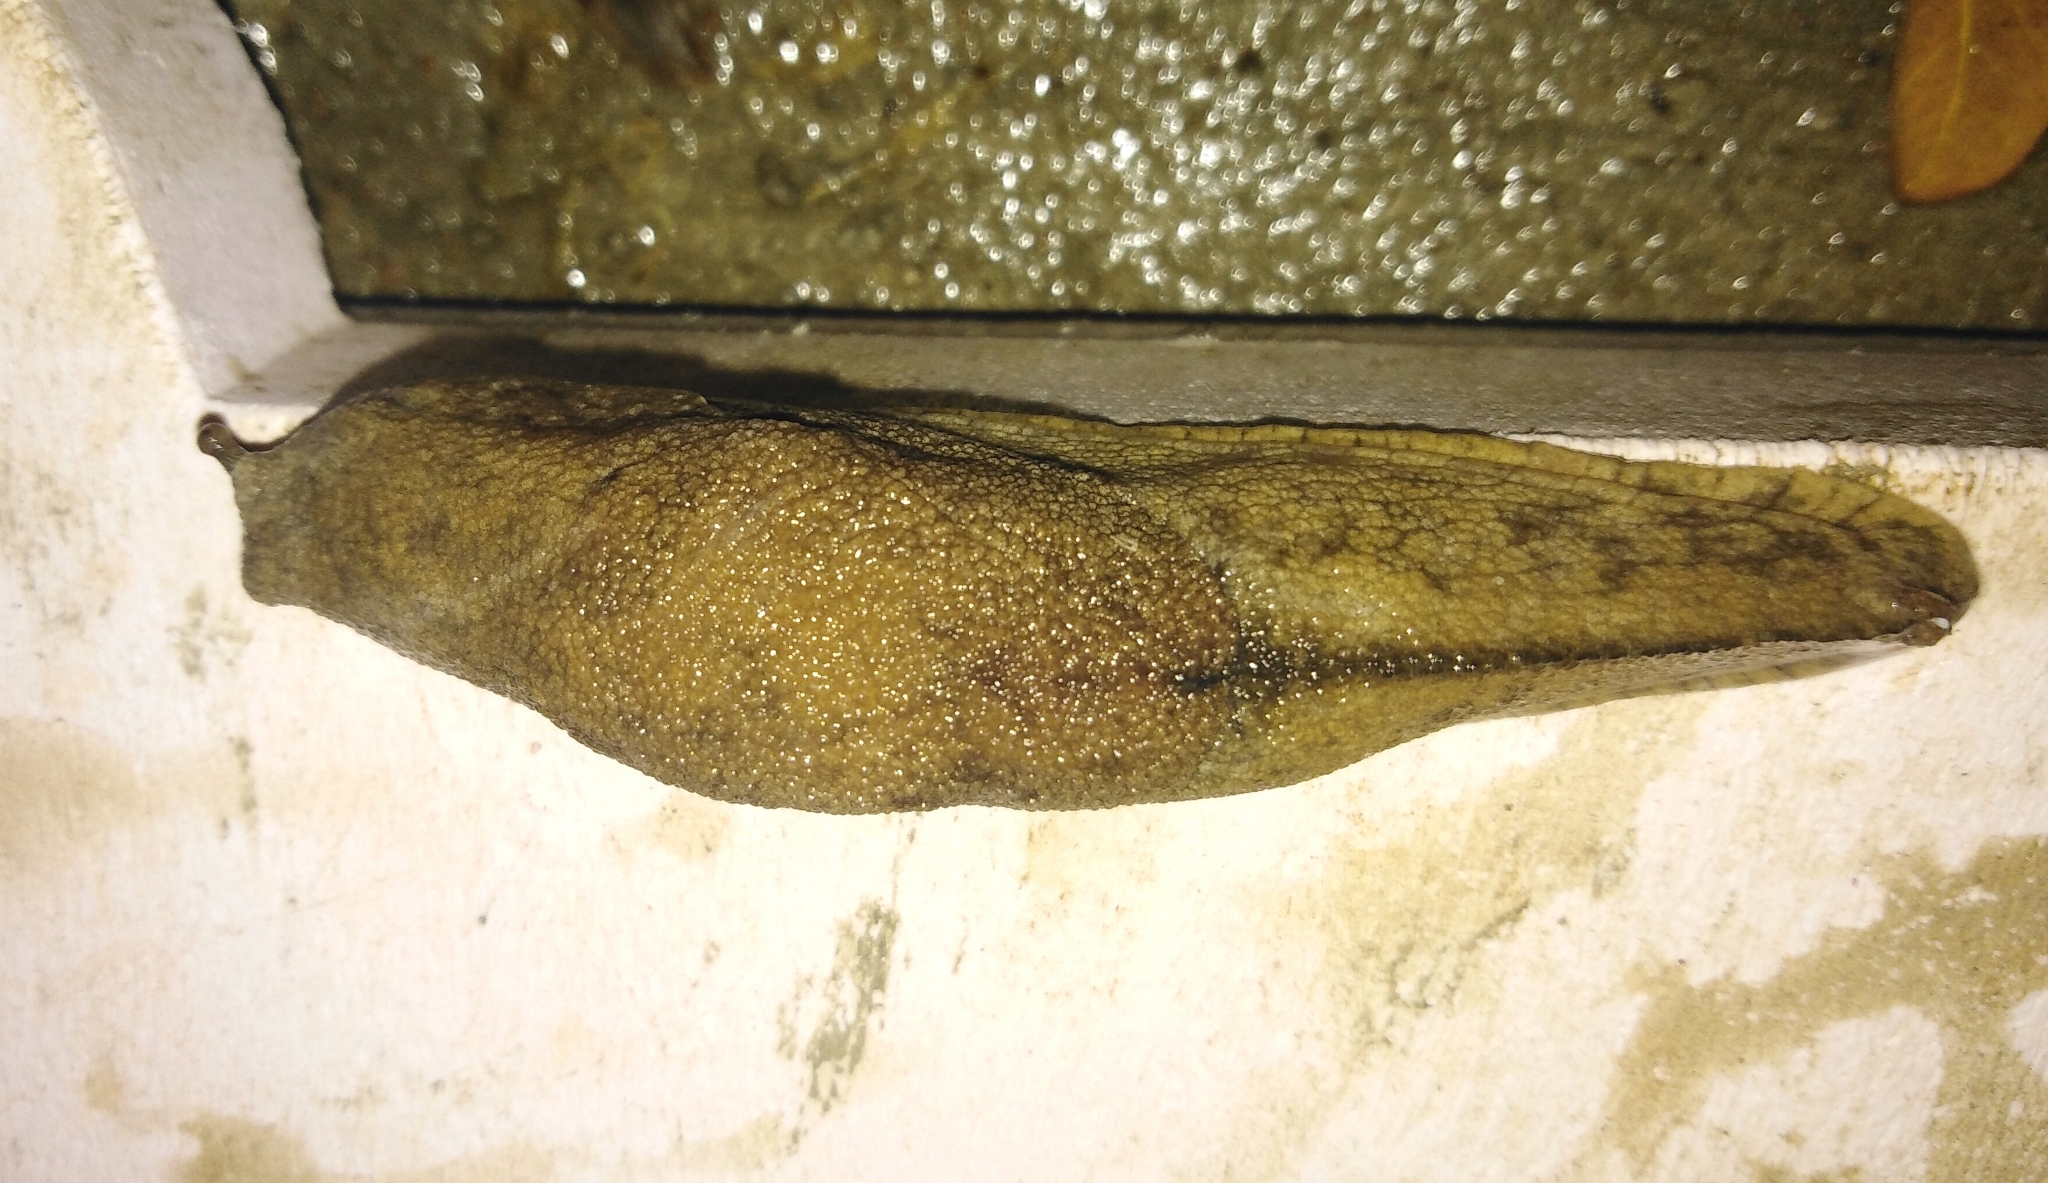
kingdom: Animalia
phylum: Mollusca
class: Gastropoda
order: Stylommatophora
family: Ariophantidae
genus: Mariaella
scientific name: Mariaella dussumieri
